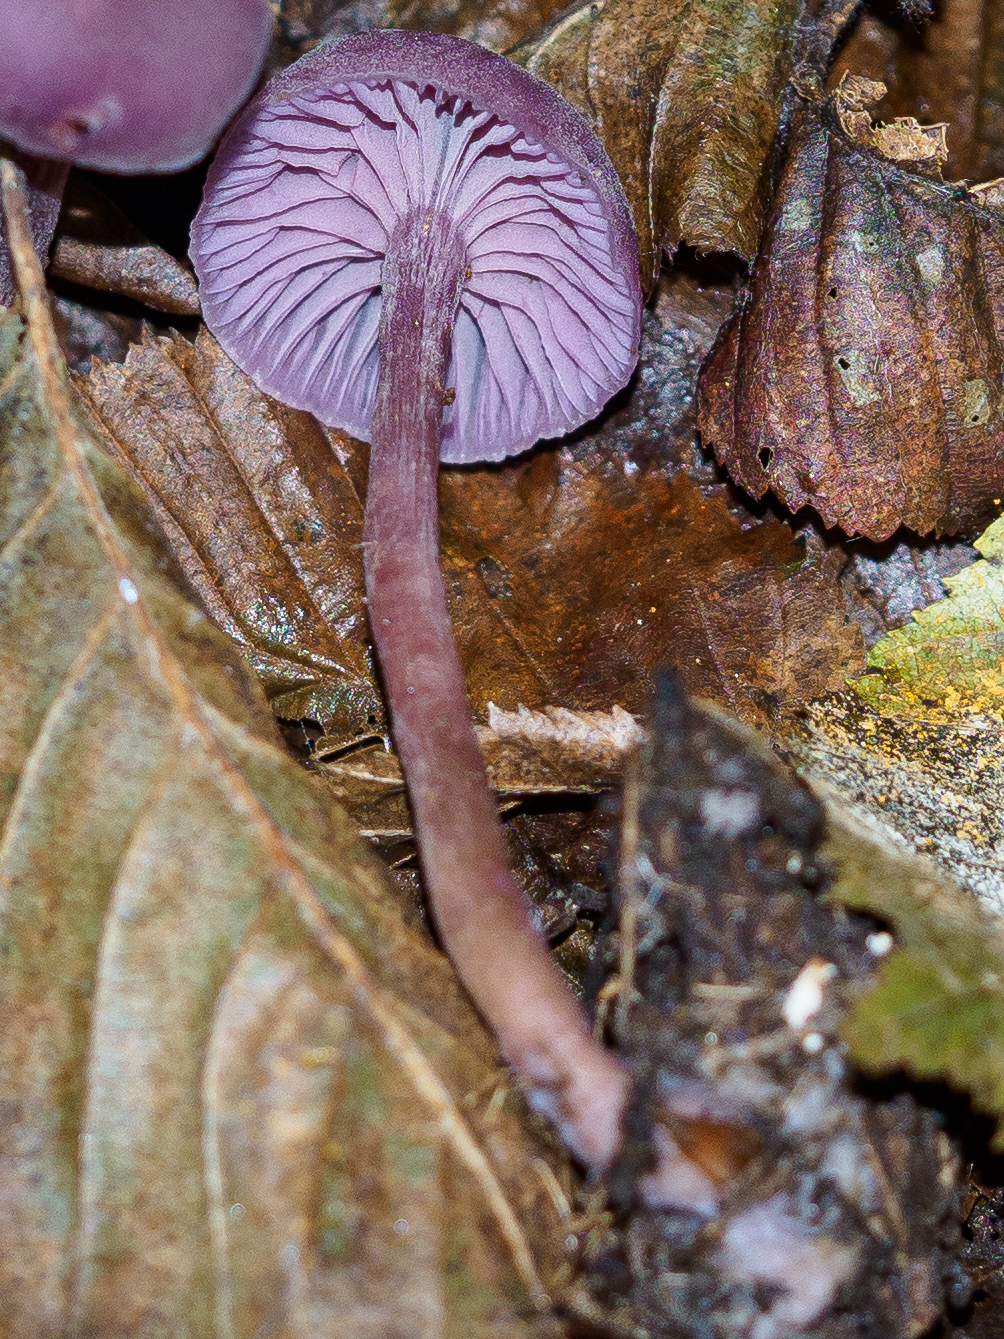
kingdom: Fungi
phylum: Basidiomycota
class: Agaricomycetes
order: Agaricales
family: Hydnangiaceae
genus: Laccaria
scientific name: Laccaria amethystina
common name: Amethyst deceiver
